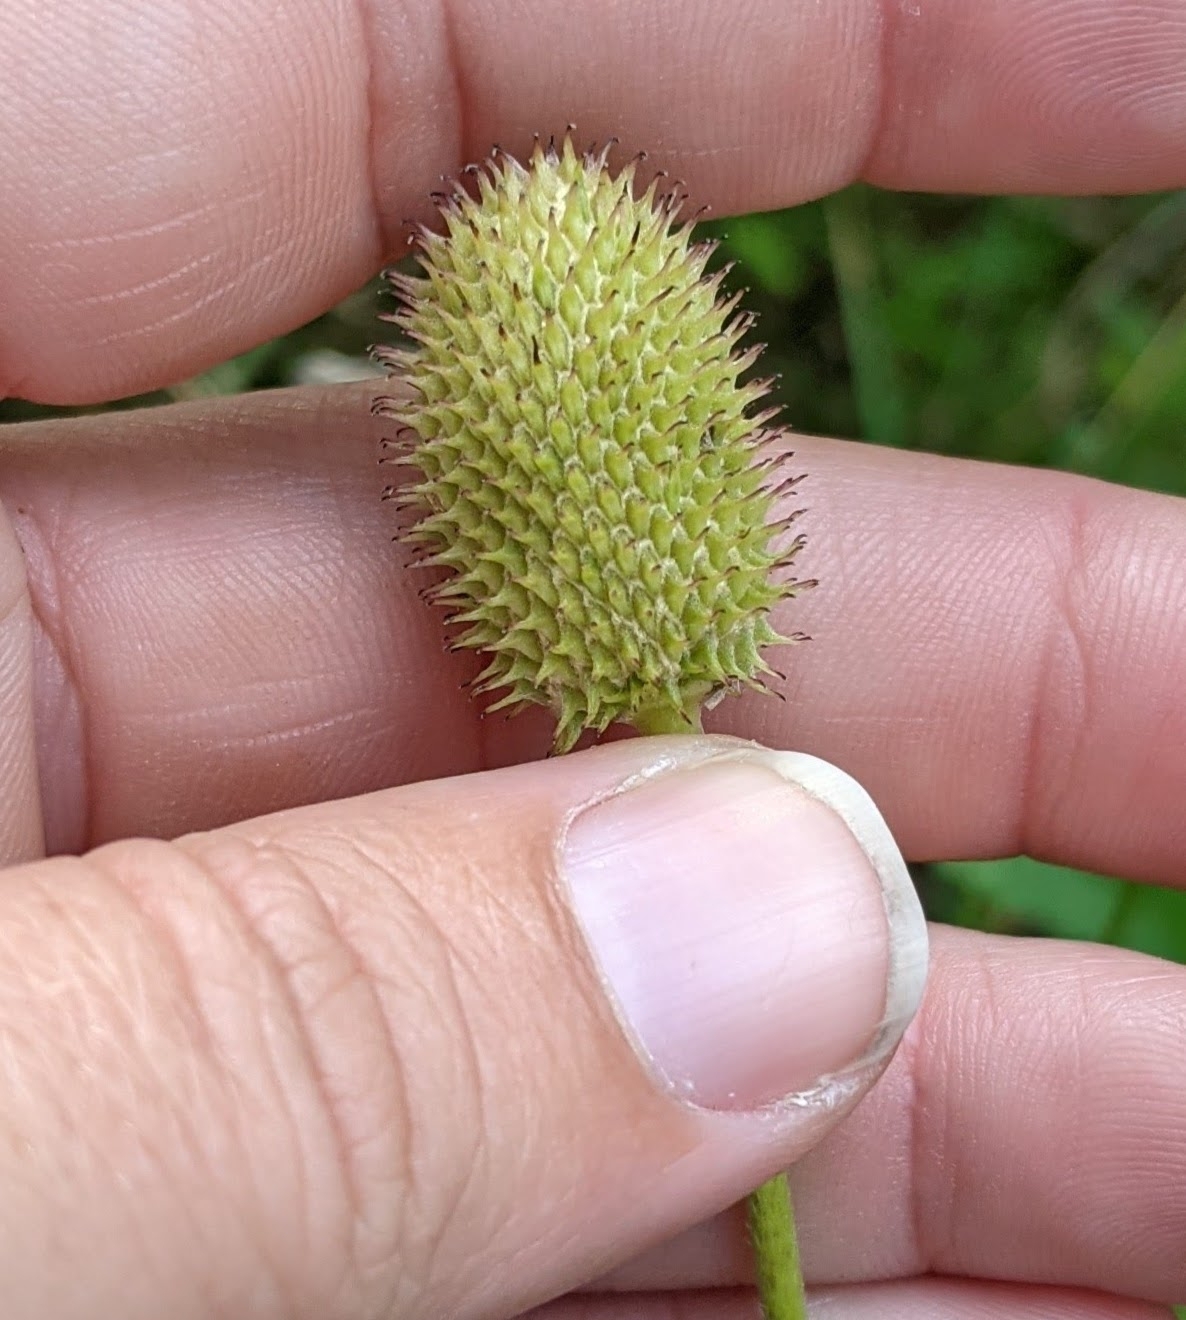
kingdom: Plantae
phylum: Tracheophyta
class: Magnoliopsida
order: Ranunculales
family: Ranunculaceae
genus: Anemone
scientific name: Anemone virginiana
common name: Tall anemone
